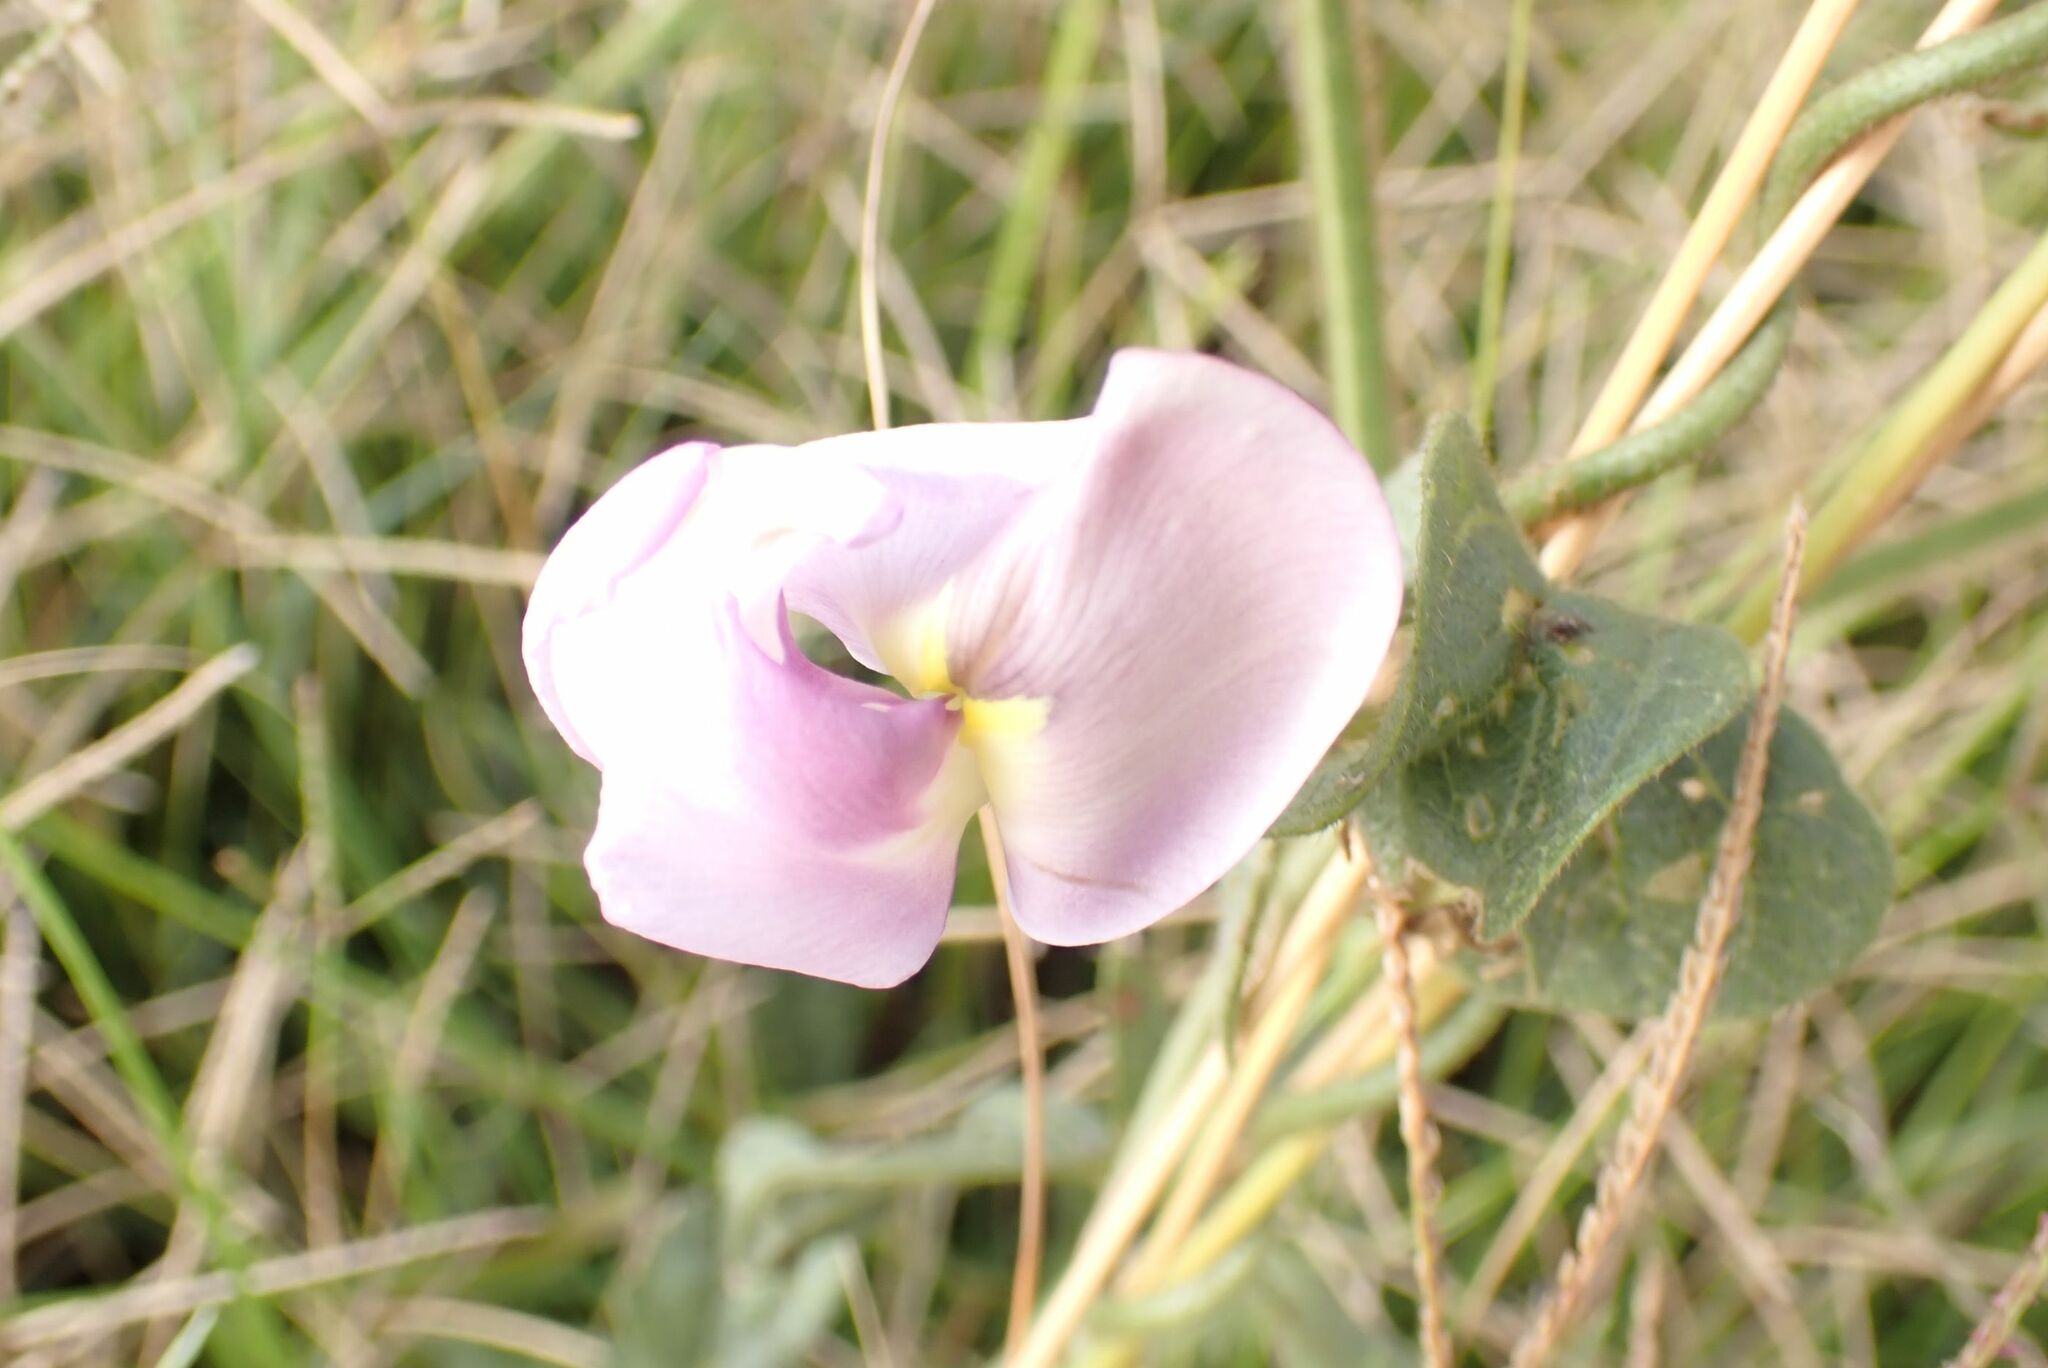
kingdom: Plantae
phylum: Tracheophyta
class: Magnoliopsida
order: Fabales
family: Fabaceae
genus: Vigna
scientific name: Vigna vexillata
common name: Zombi pea
